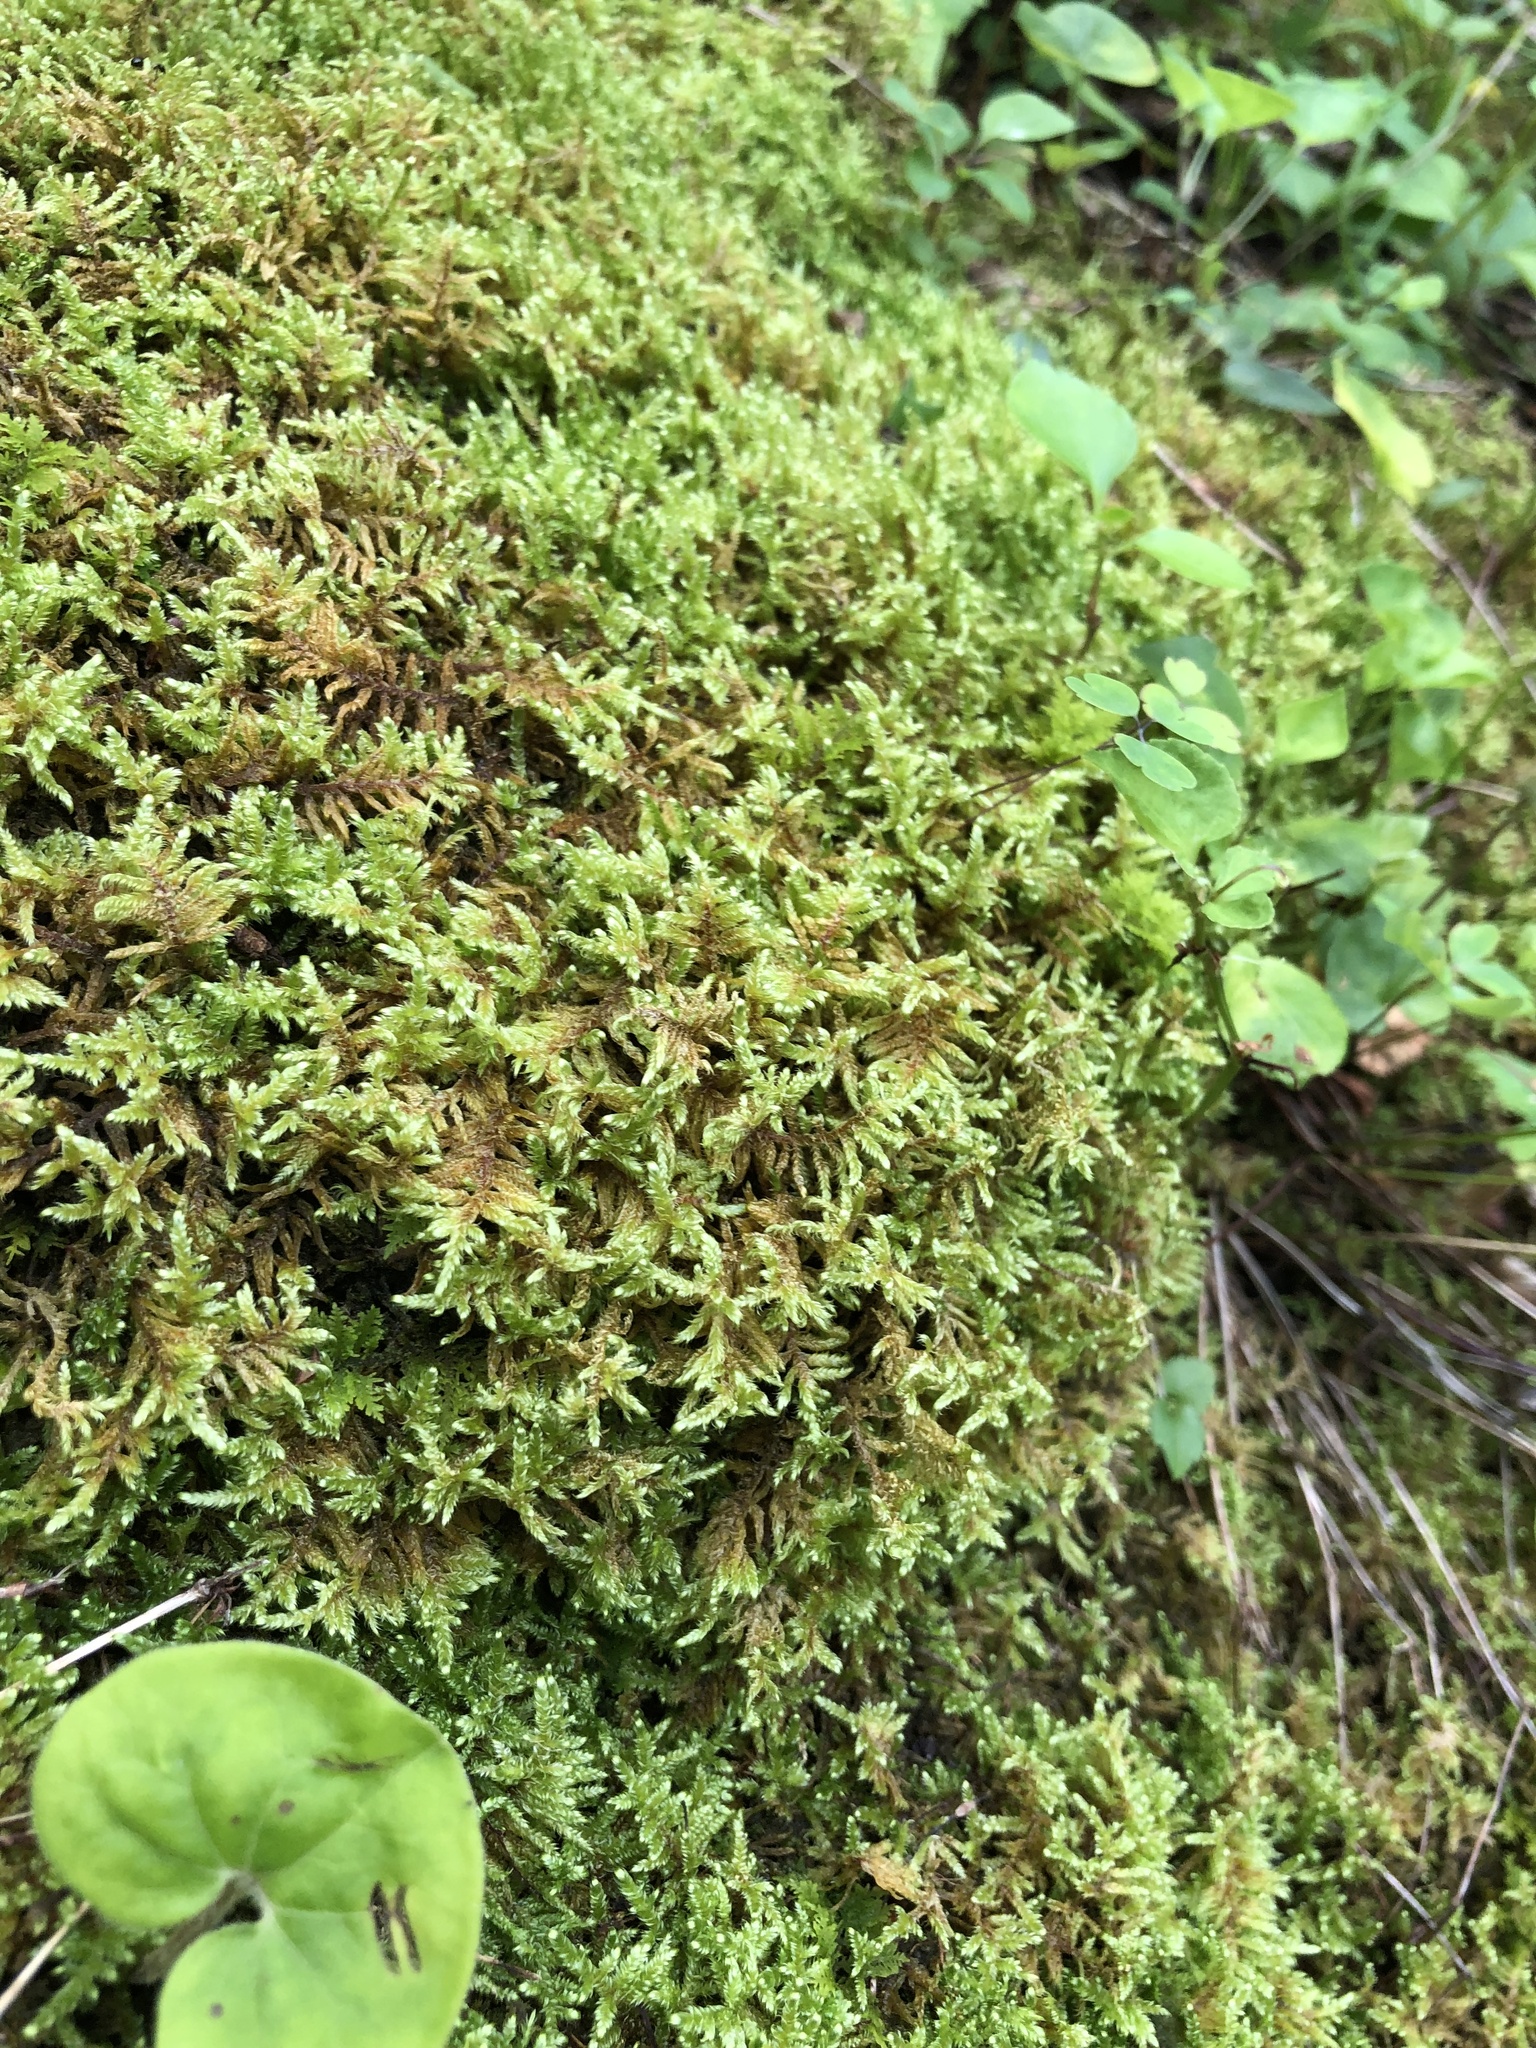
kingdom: Plantae
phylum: Bryophyta
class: Bryopsida
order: Hypnales
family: Callicladiaceae
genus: Callicladium
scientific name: Callicladium imponens
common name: Brocade moss
